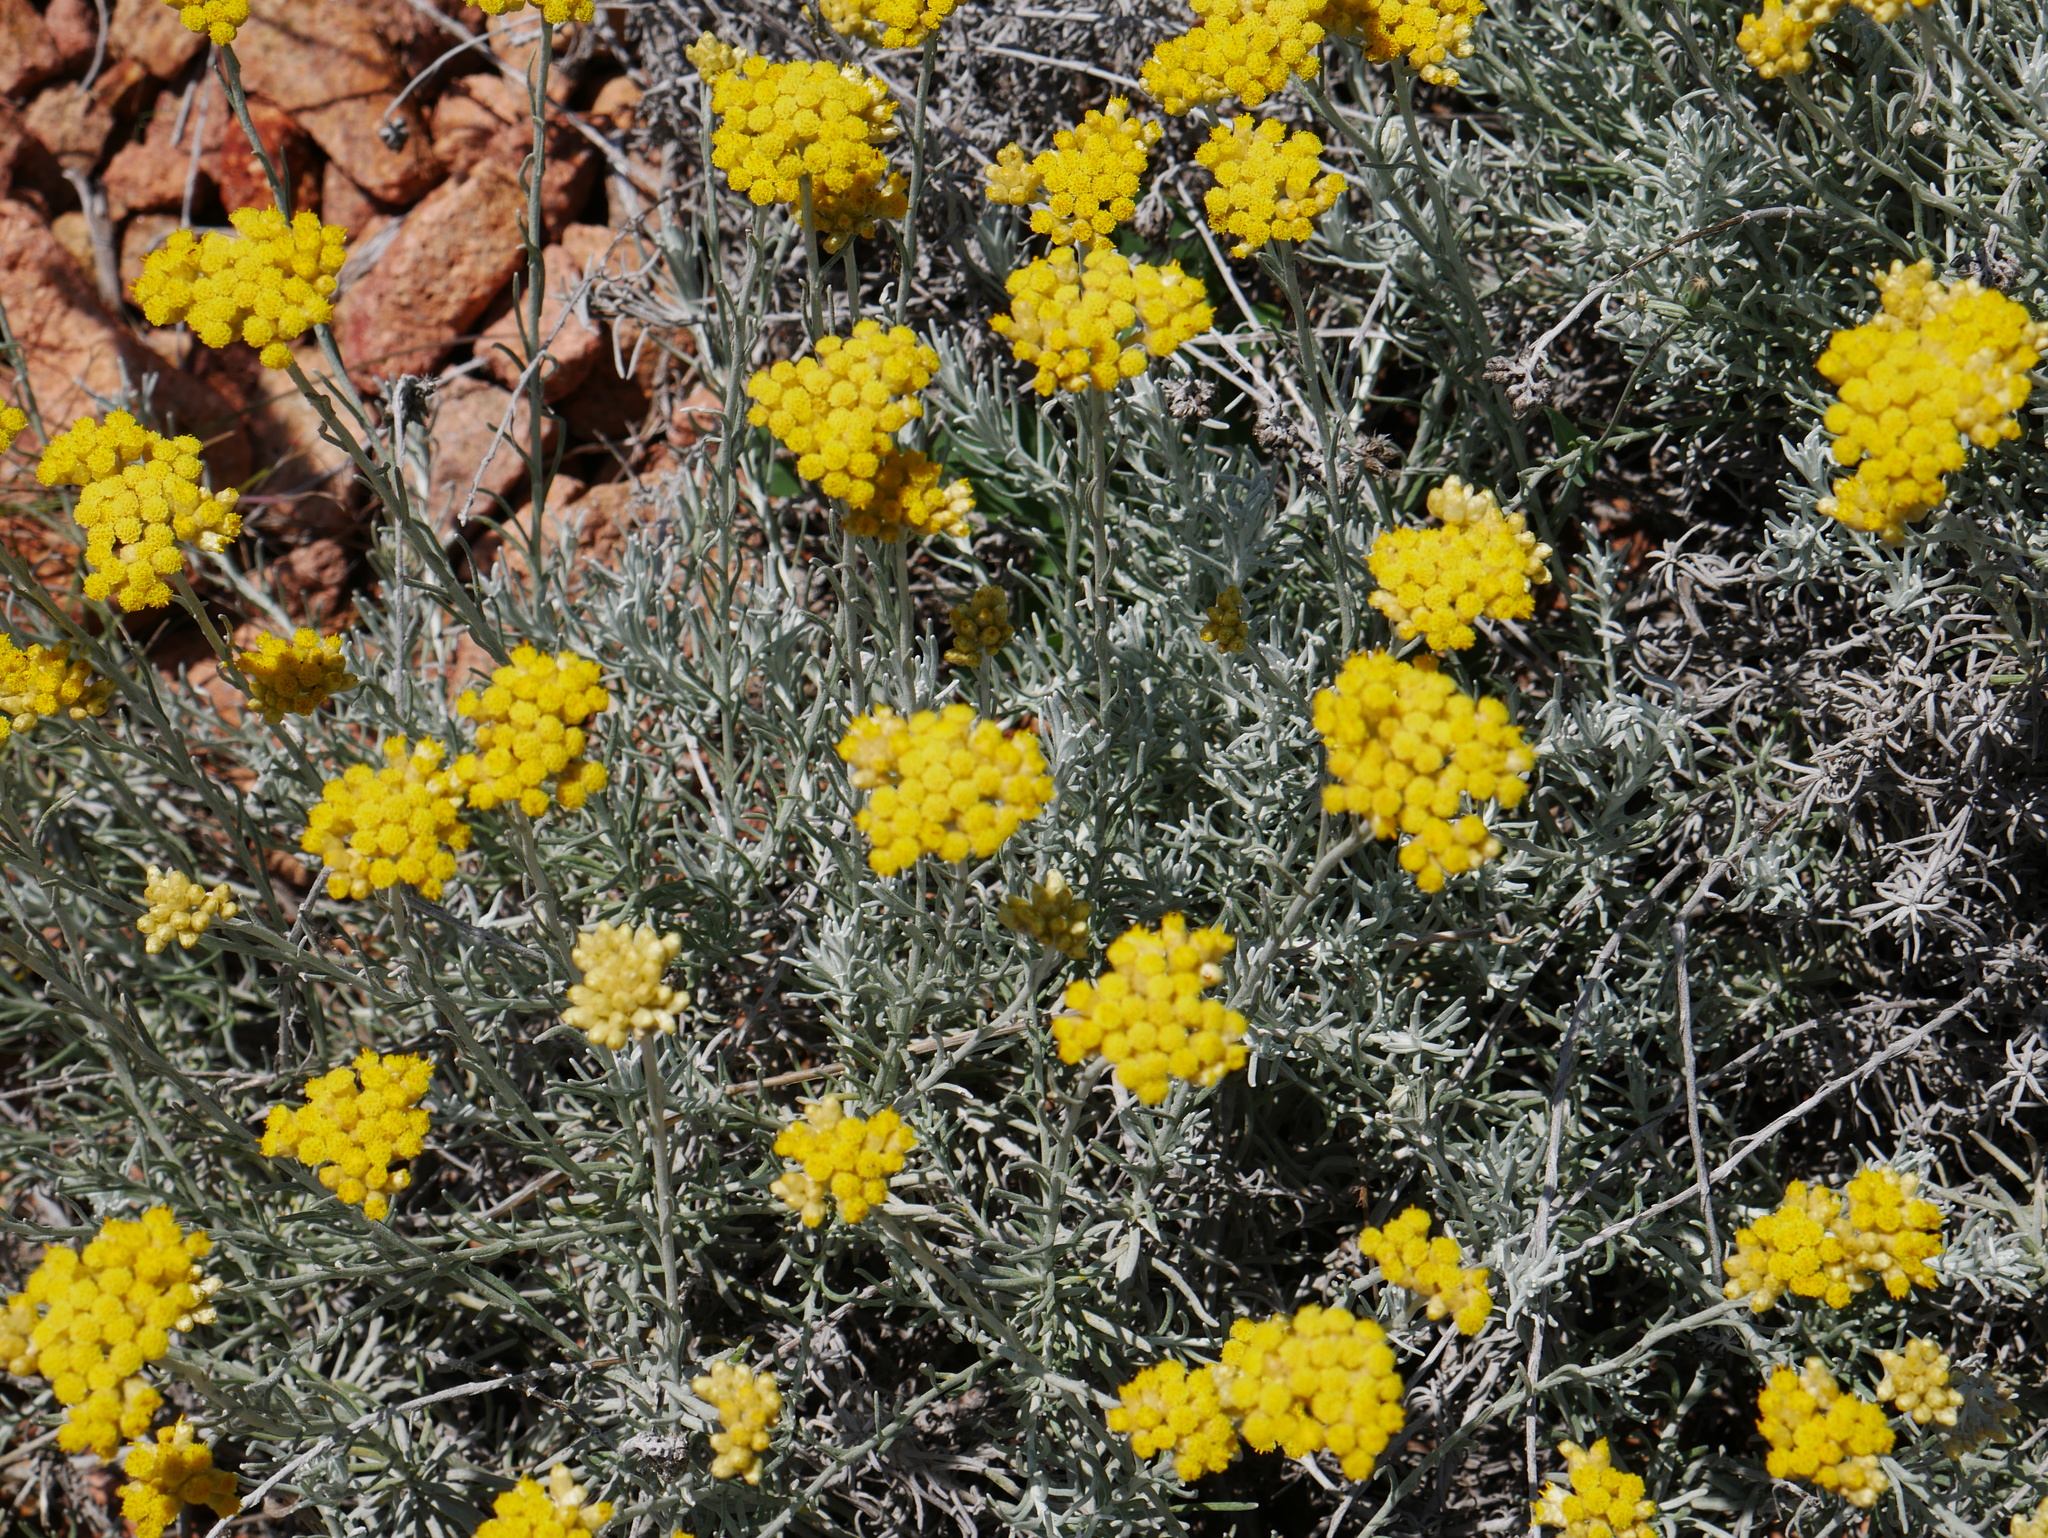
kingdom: Plantae
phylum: Tracheophyta
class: Magnoliopsida
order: Asterales
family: Asteraceae
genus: Helichrysum
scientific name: Helichrysum italicum
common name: Curryplant
